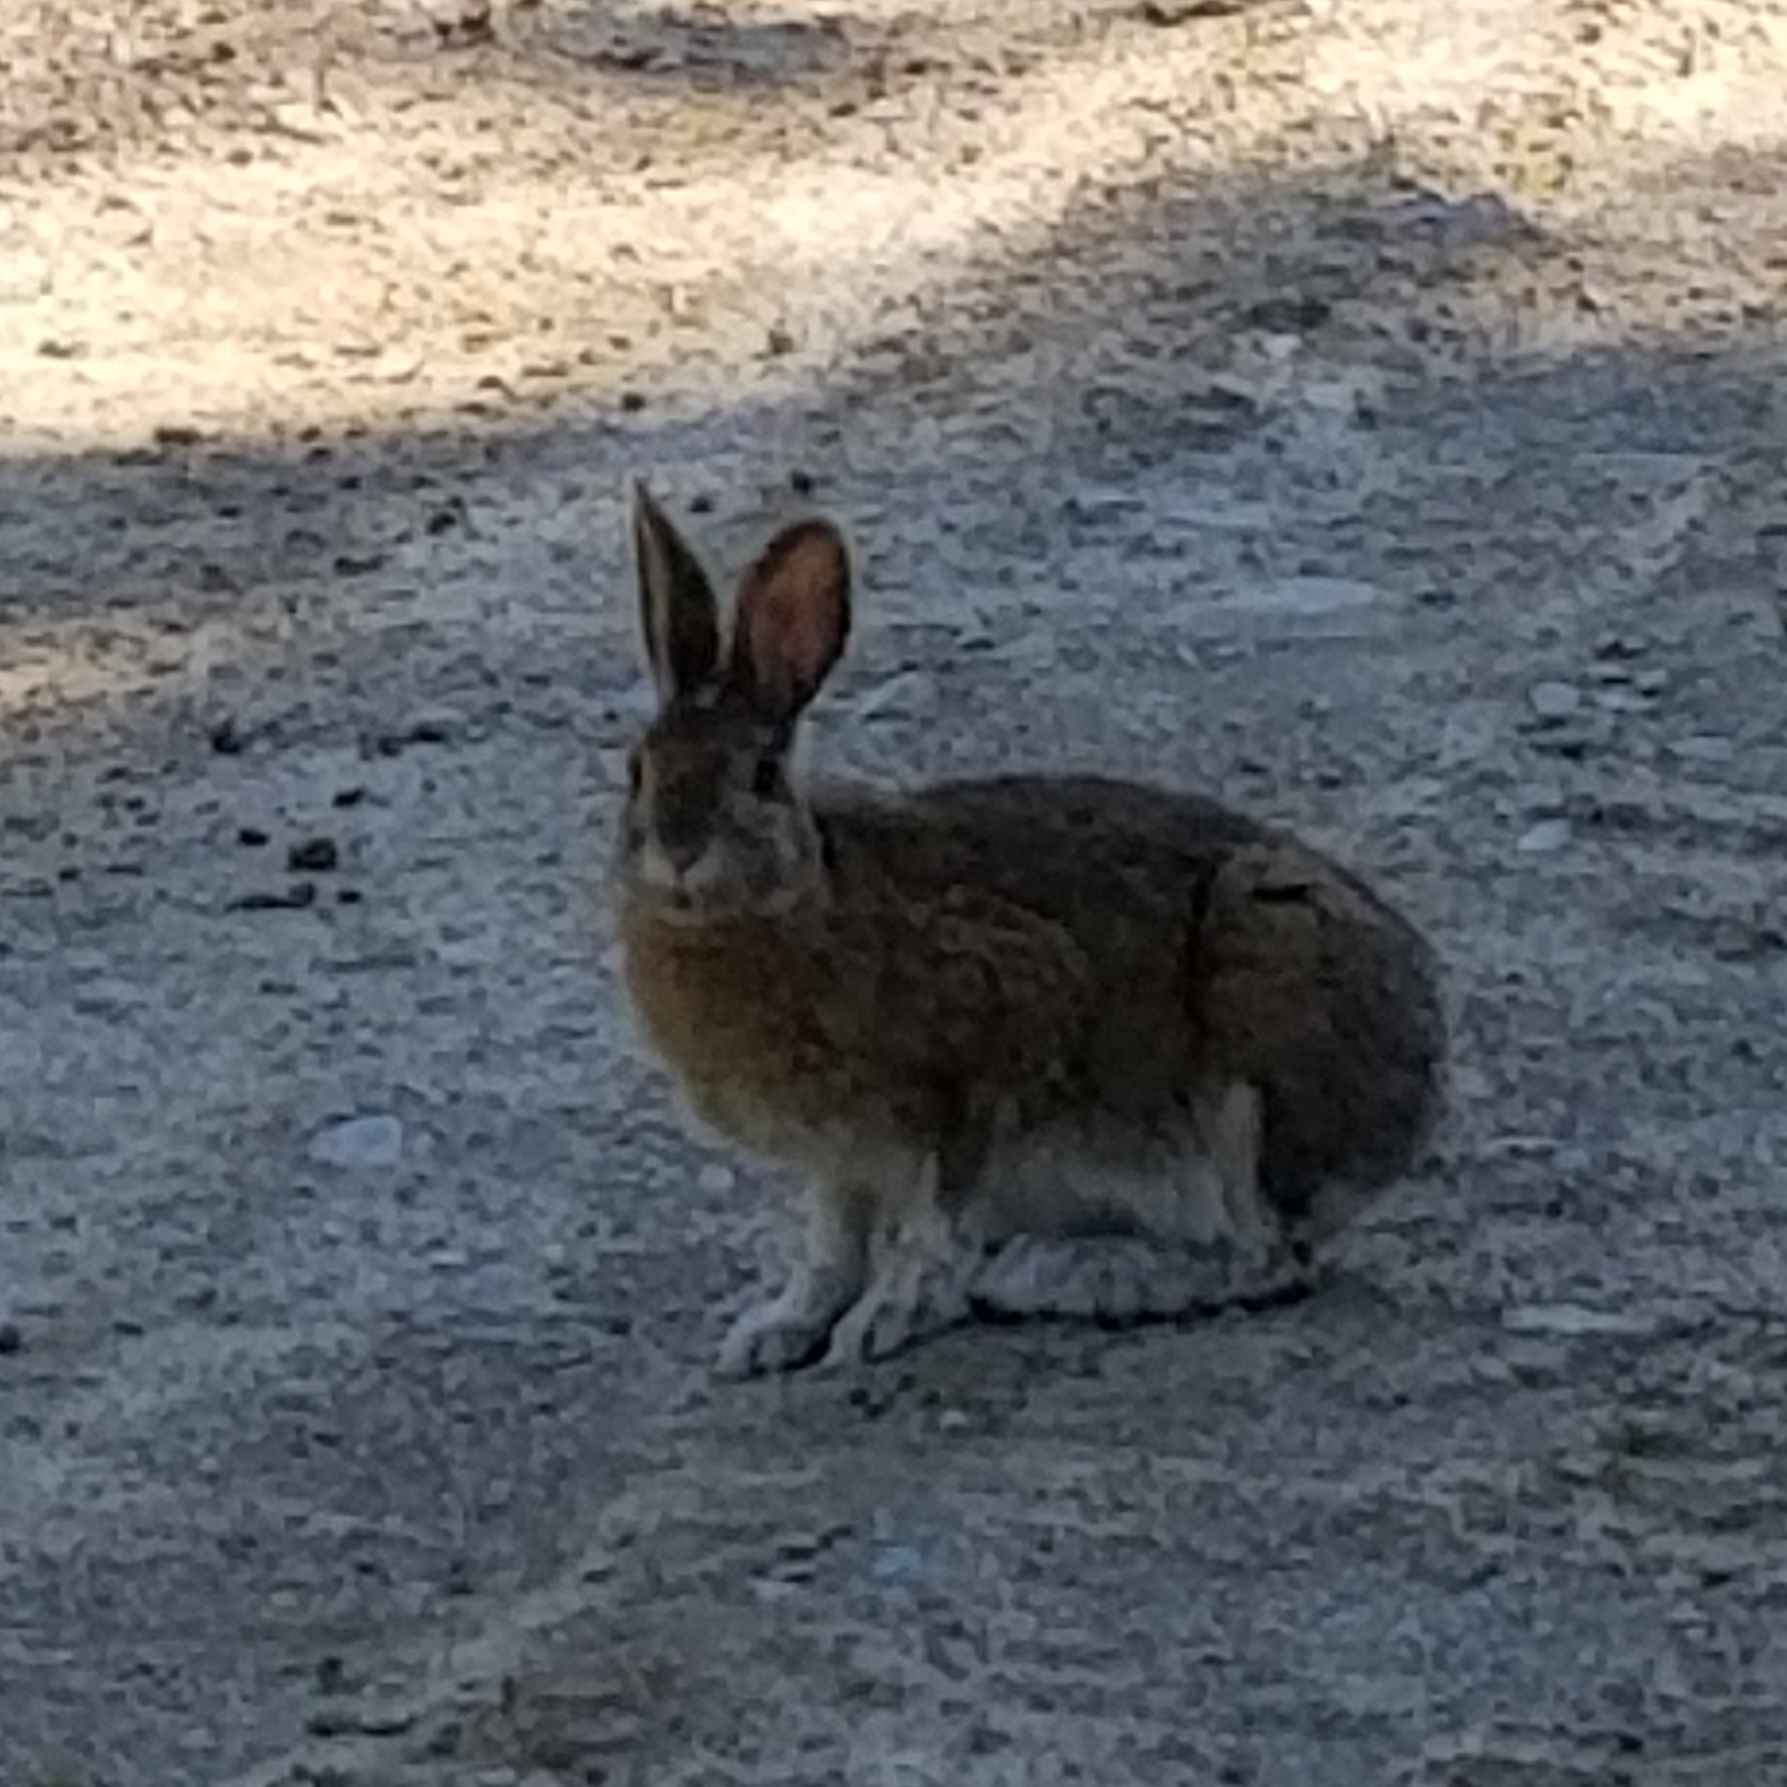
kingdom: Animalia
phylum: Chordata
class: Mammalia
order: Lagomorpha
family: Leporidae
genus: Lepus
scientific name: Lepus americanus
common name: Snowshoe hare
